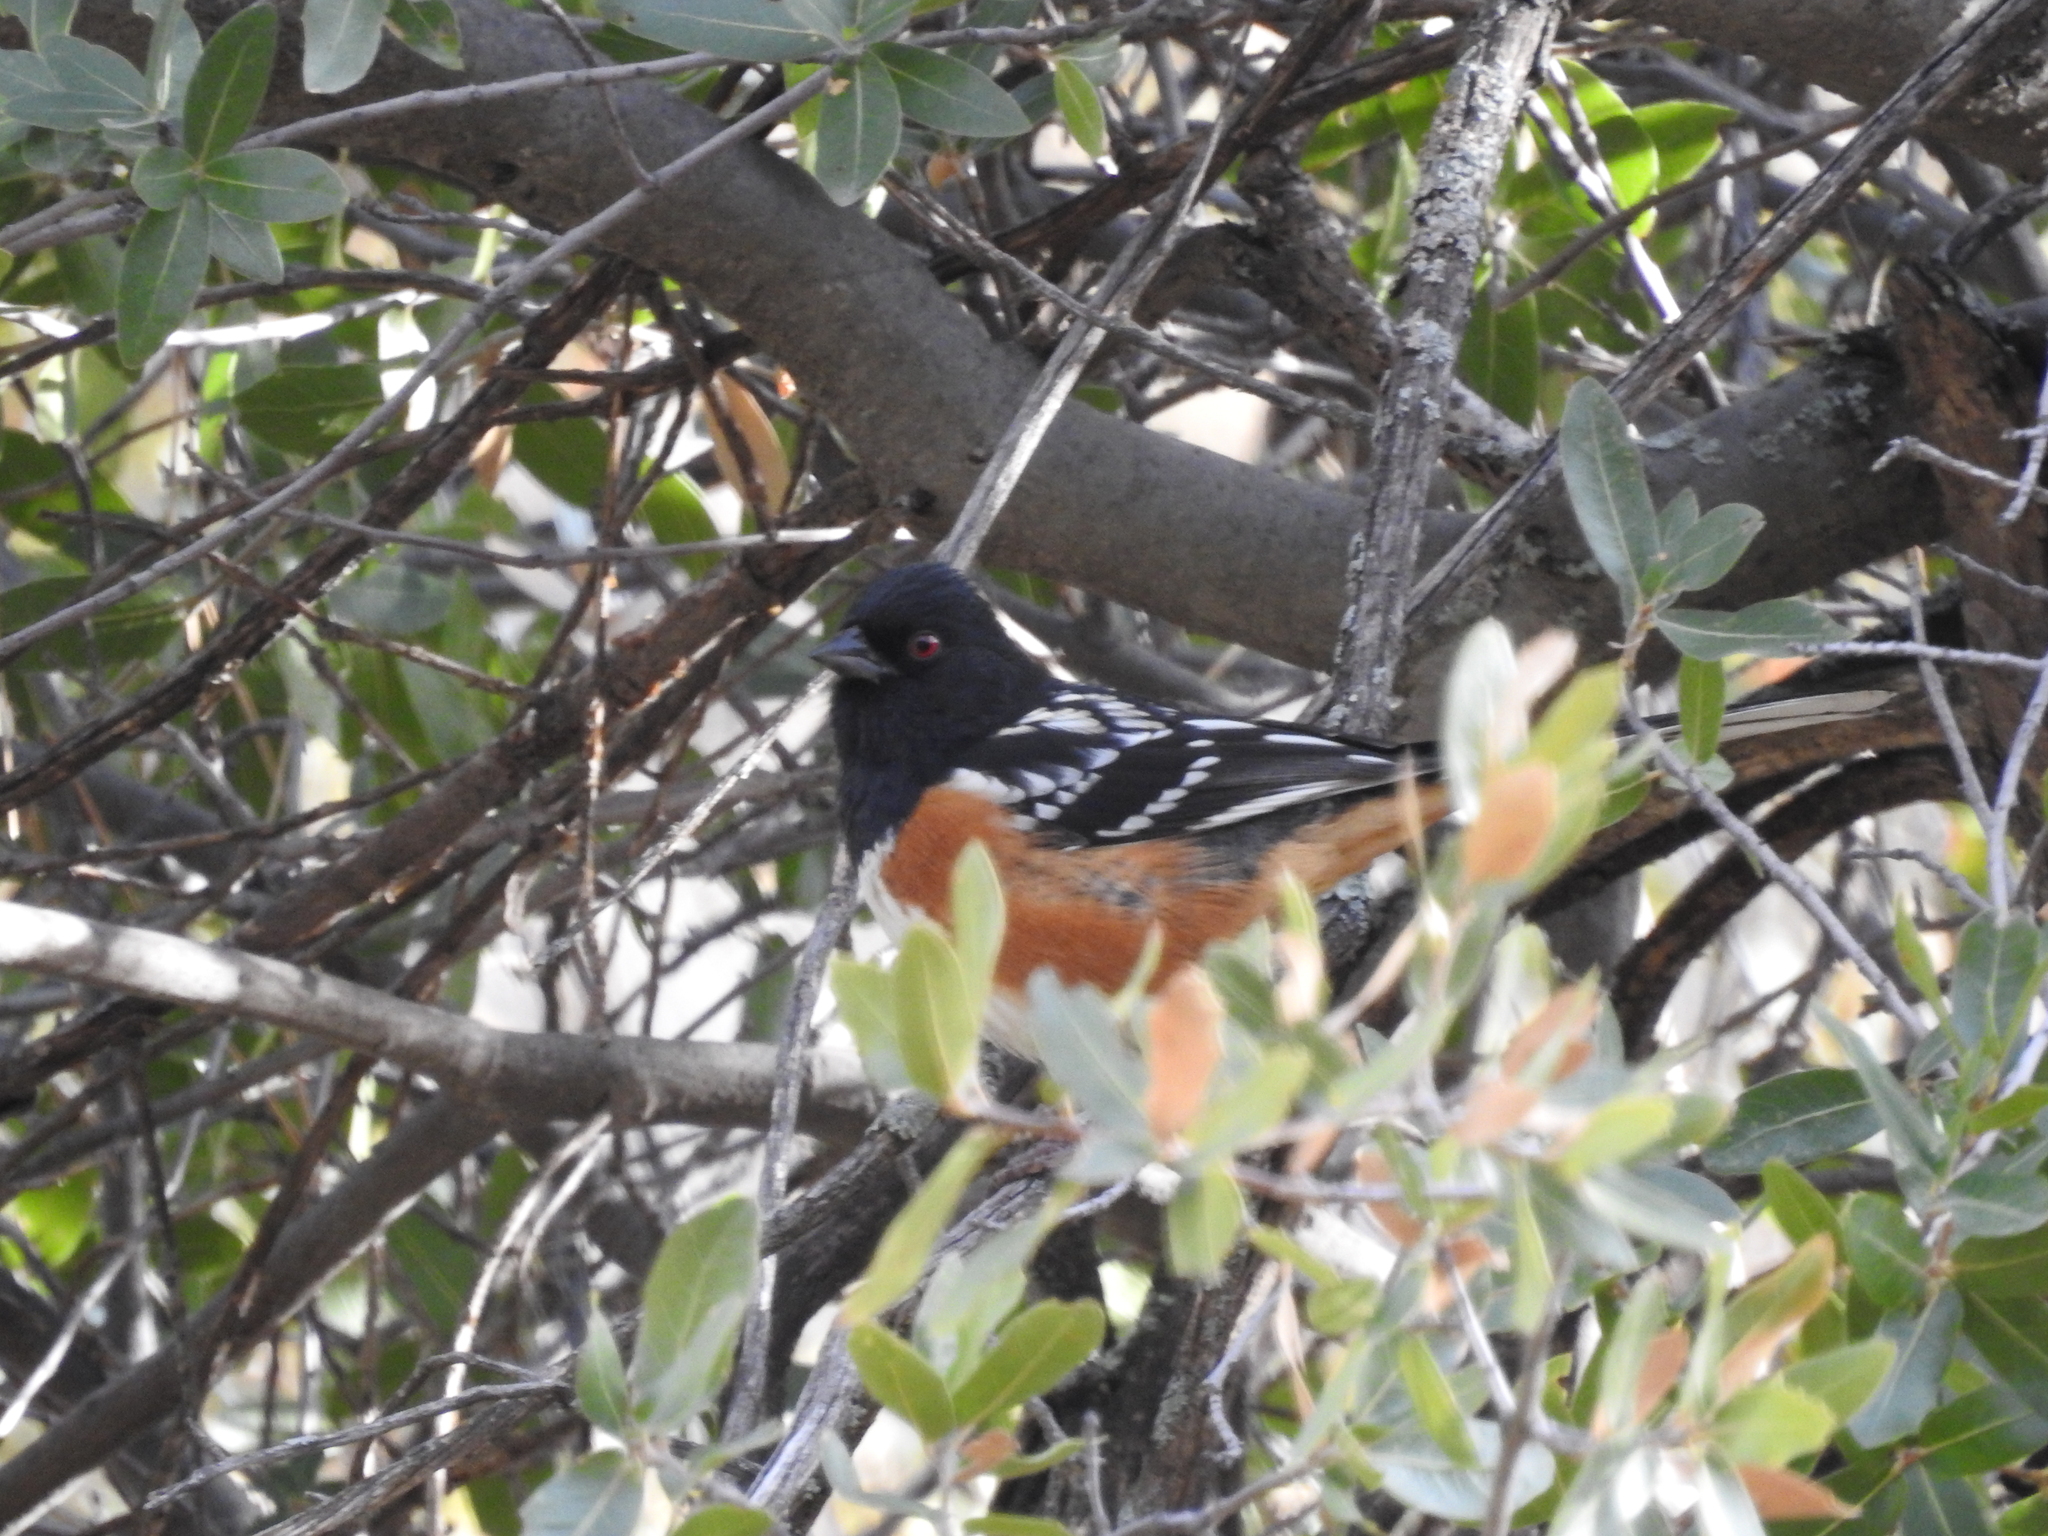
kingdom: Animalia
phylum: Chordata
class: Aves
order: Passeriformes
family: Passerellidae
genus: Pipilo
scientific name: Pipilo maculatus
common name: Spotted towhee
